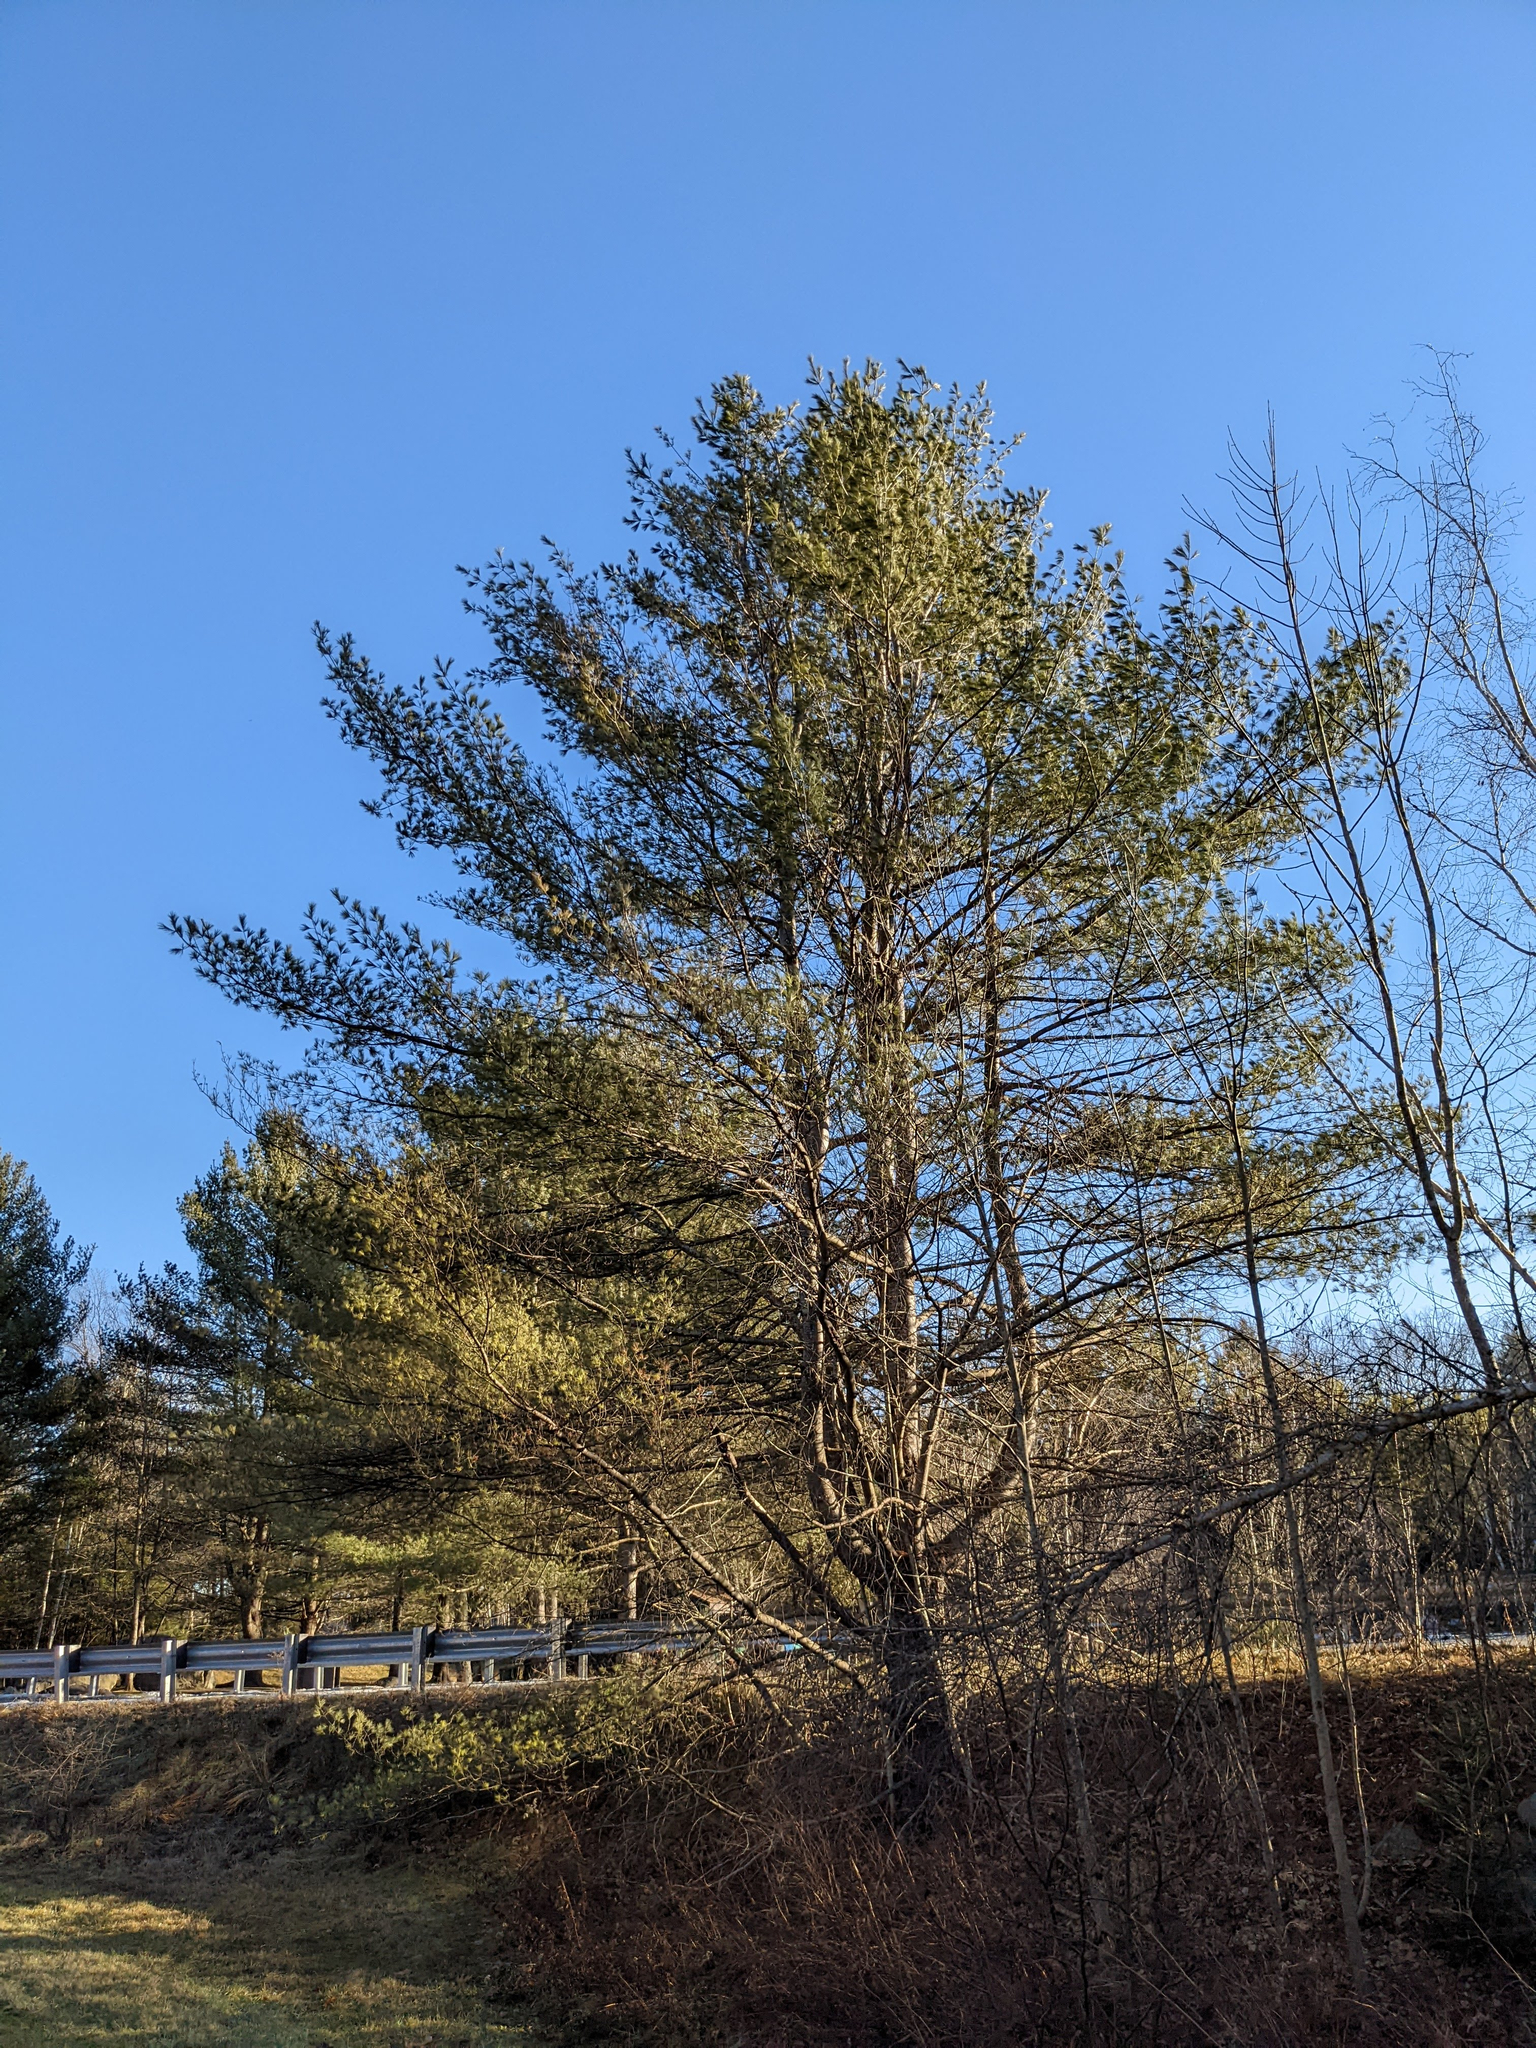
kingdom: Plantae
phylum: Tracheophyta
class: Pinopsida
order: Pinales
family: Pinaceae
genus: Pinus
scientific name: Pinus strobus
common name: Weymouth pine
